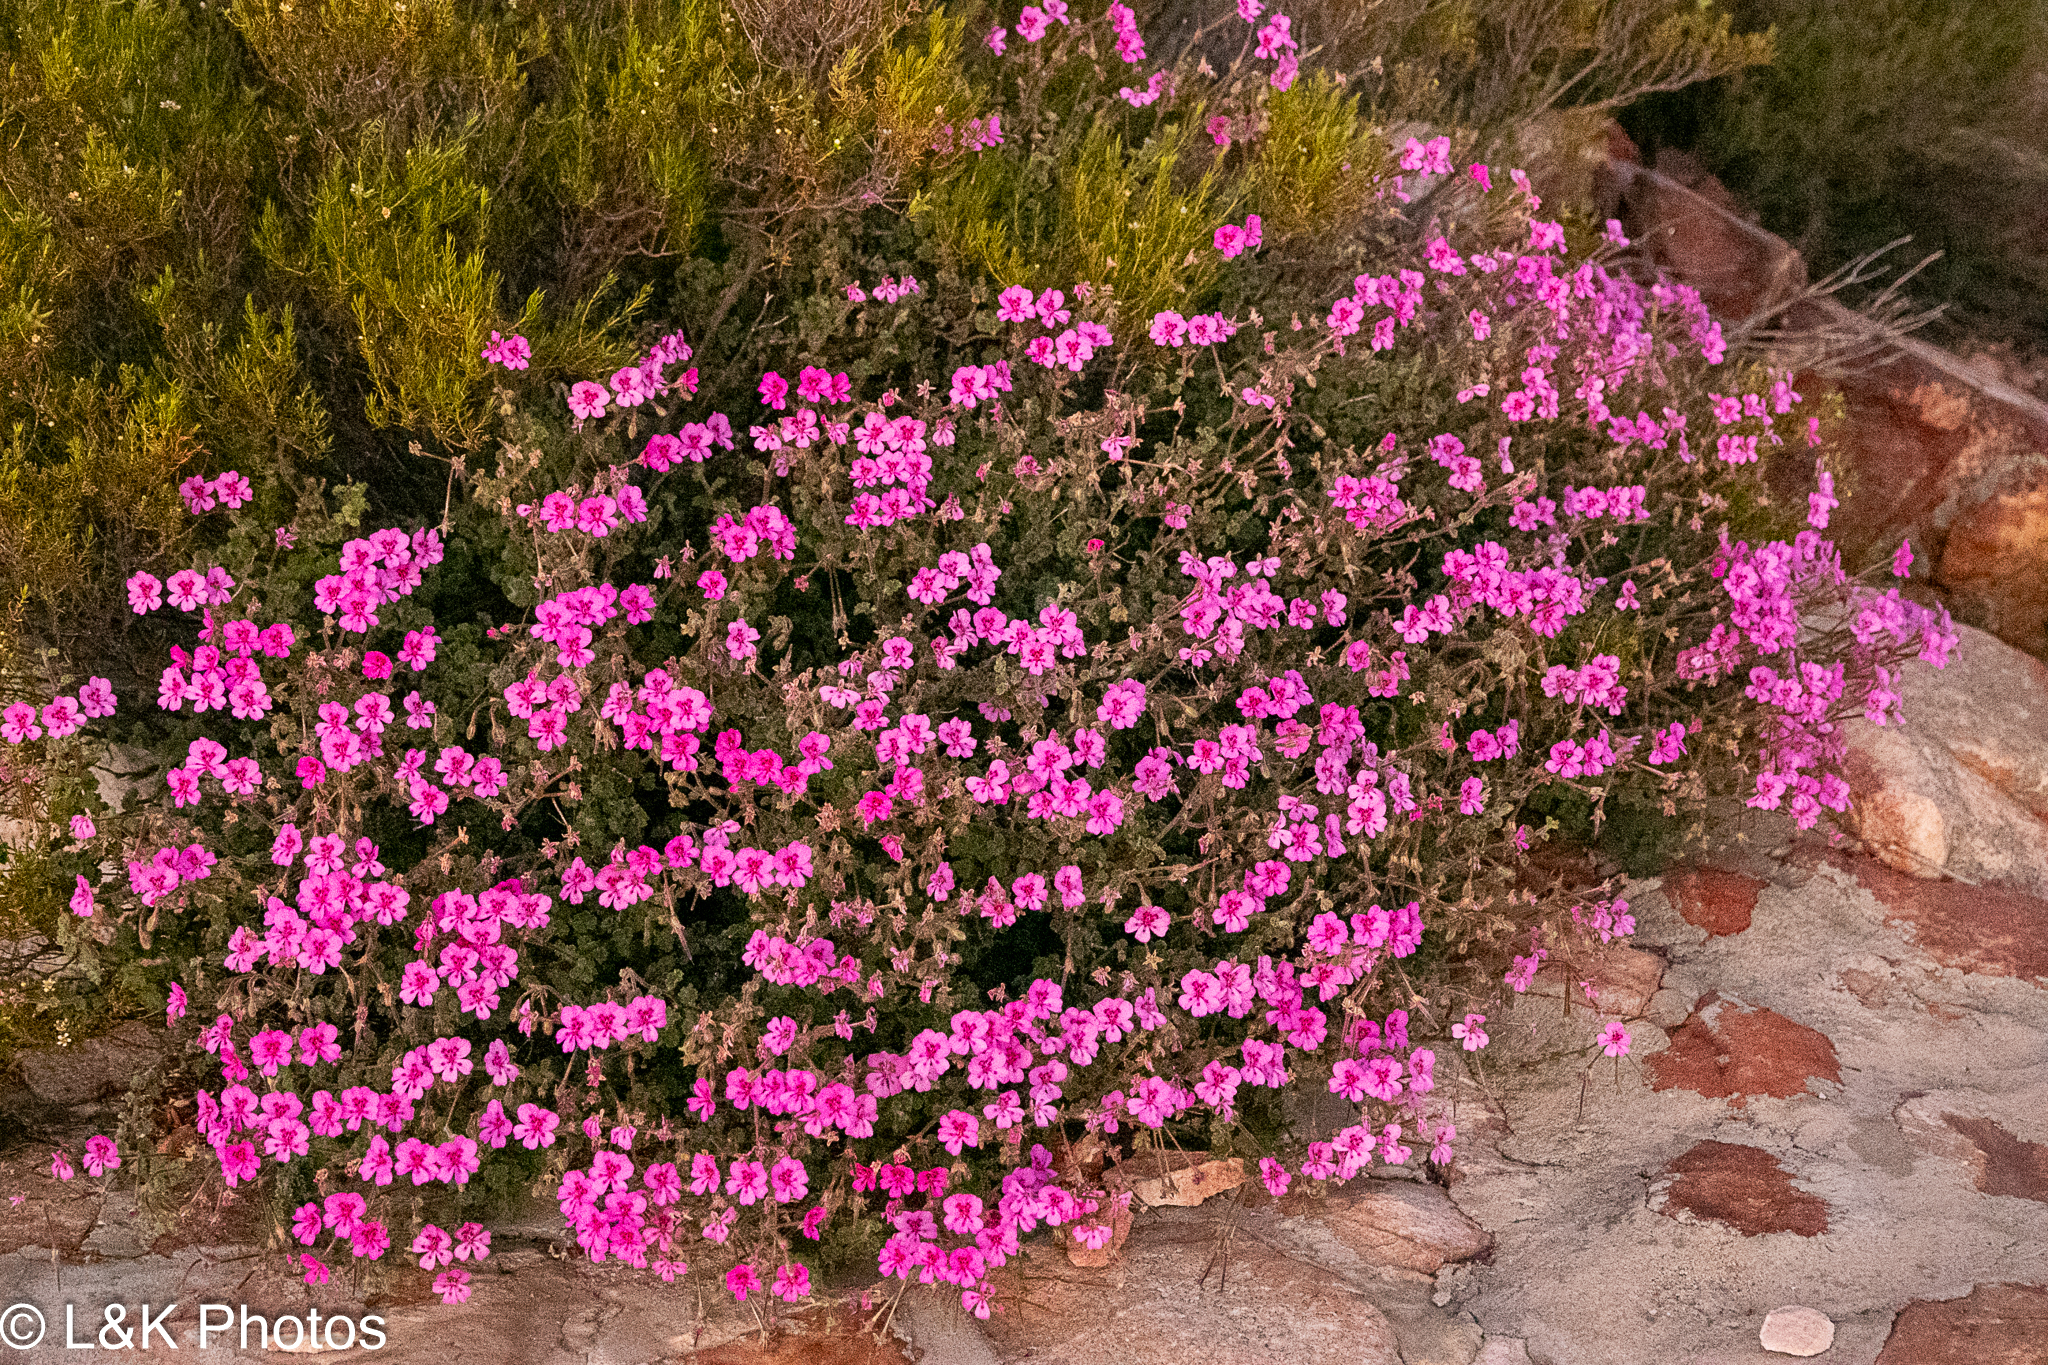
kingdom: Plantae
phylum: Tracheophyta
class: Magnoliopsida
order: Geraniales
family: Geraniaceae
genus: Pelargonium
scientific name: Pelargonium magenteum
